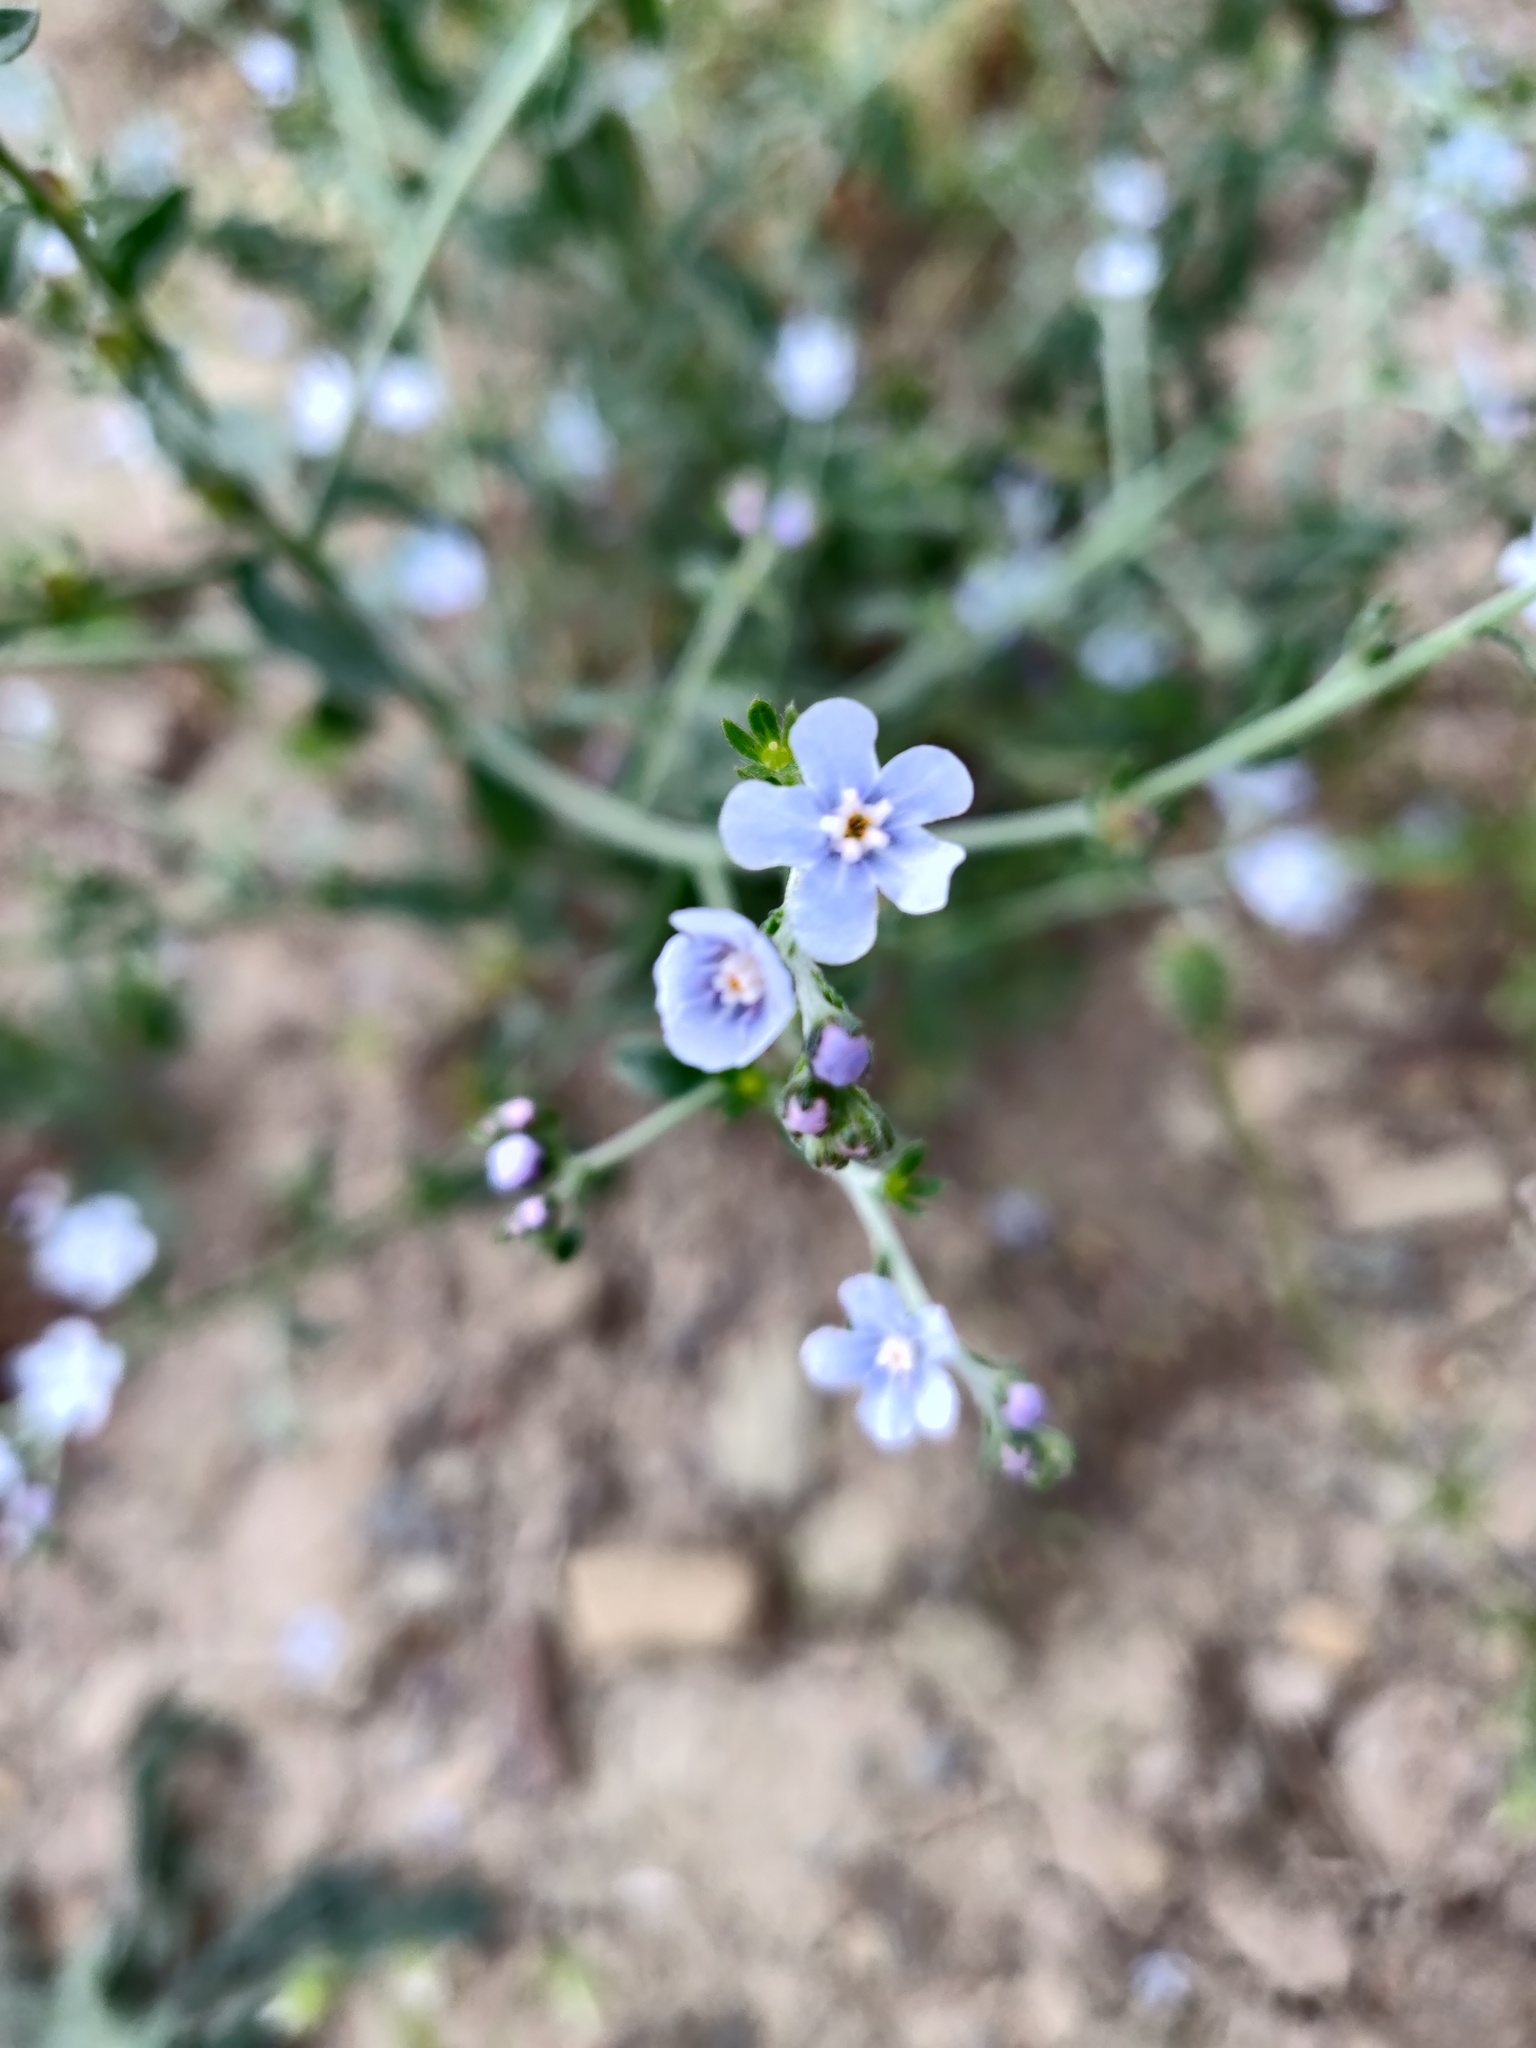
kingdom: Plantae
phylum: Tracheophyta
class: Magnoliopsida
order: Boraginales
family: Boraginaceae
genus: Lappula
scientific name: Lappula barbata
